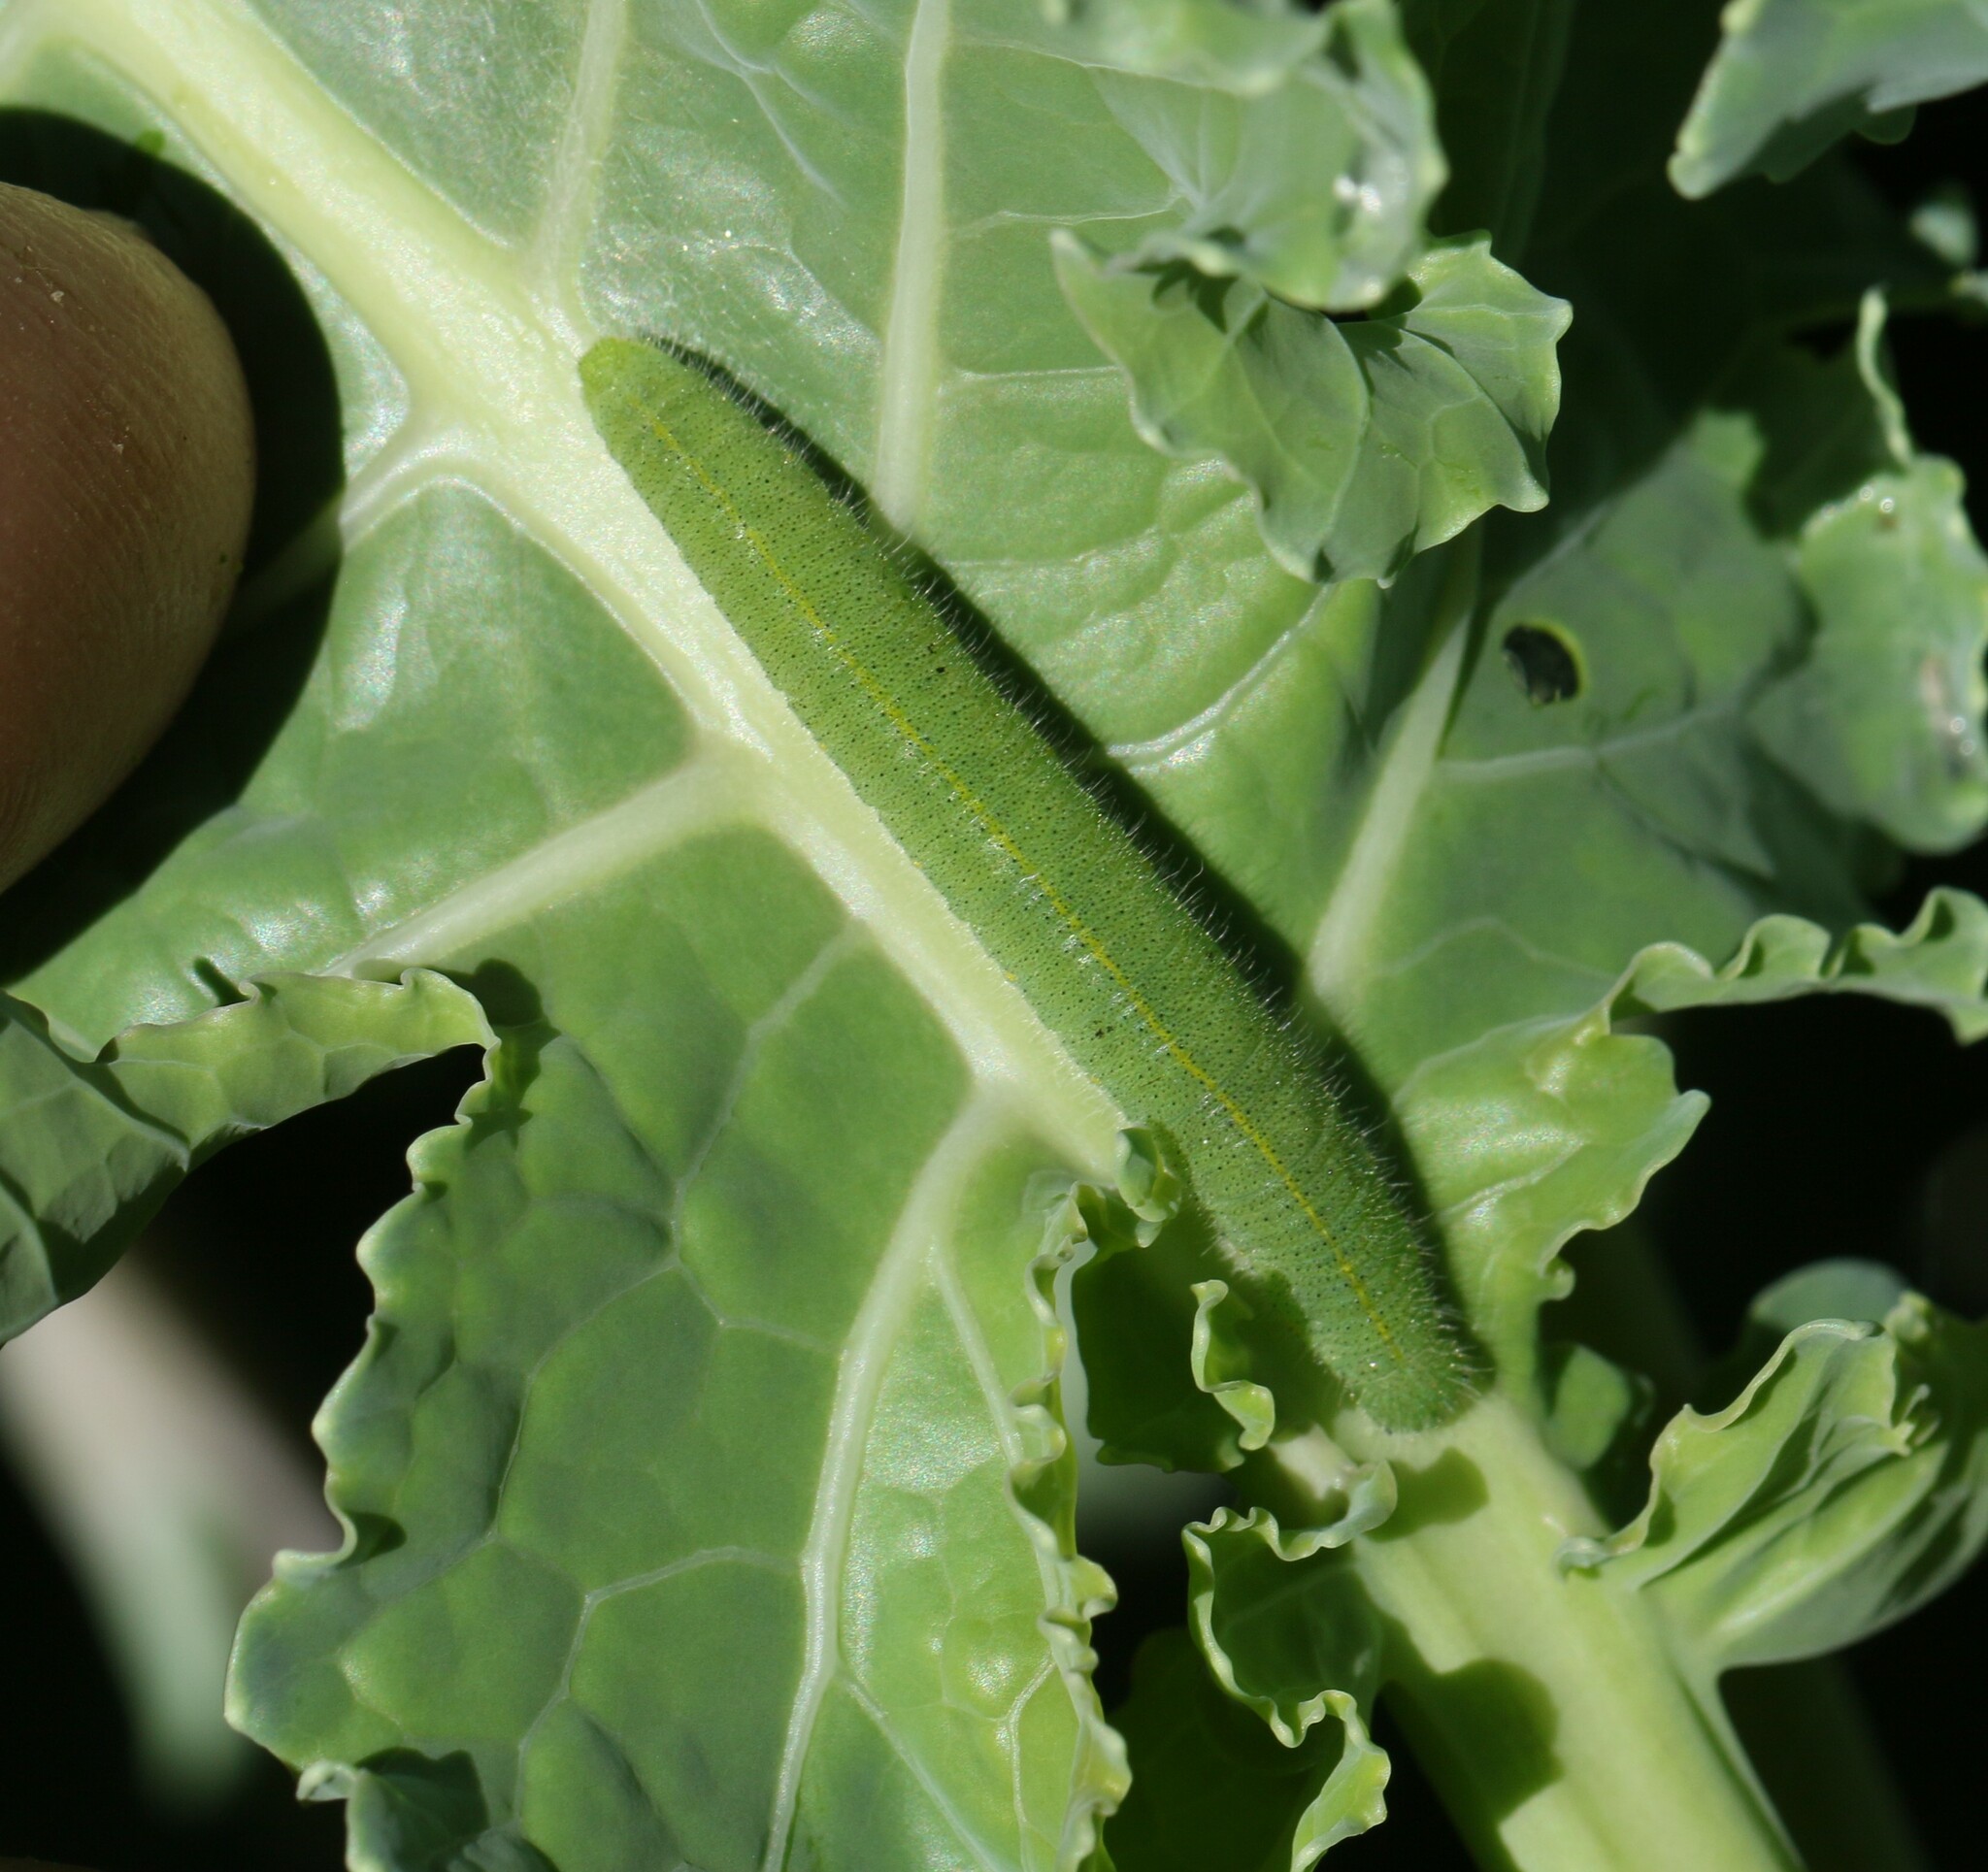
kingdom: Animalia
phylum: Arthropoda
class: Insecta
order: Lepidoptera
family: Pieridae
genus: Pieris
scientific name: Pieris rapae
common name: Small white
